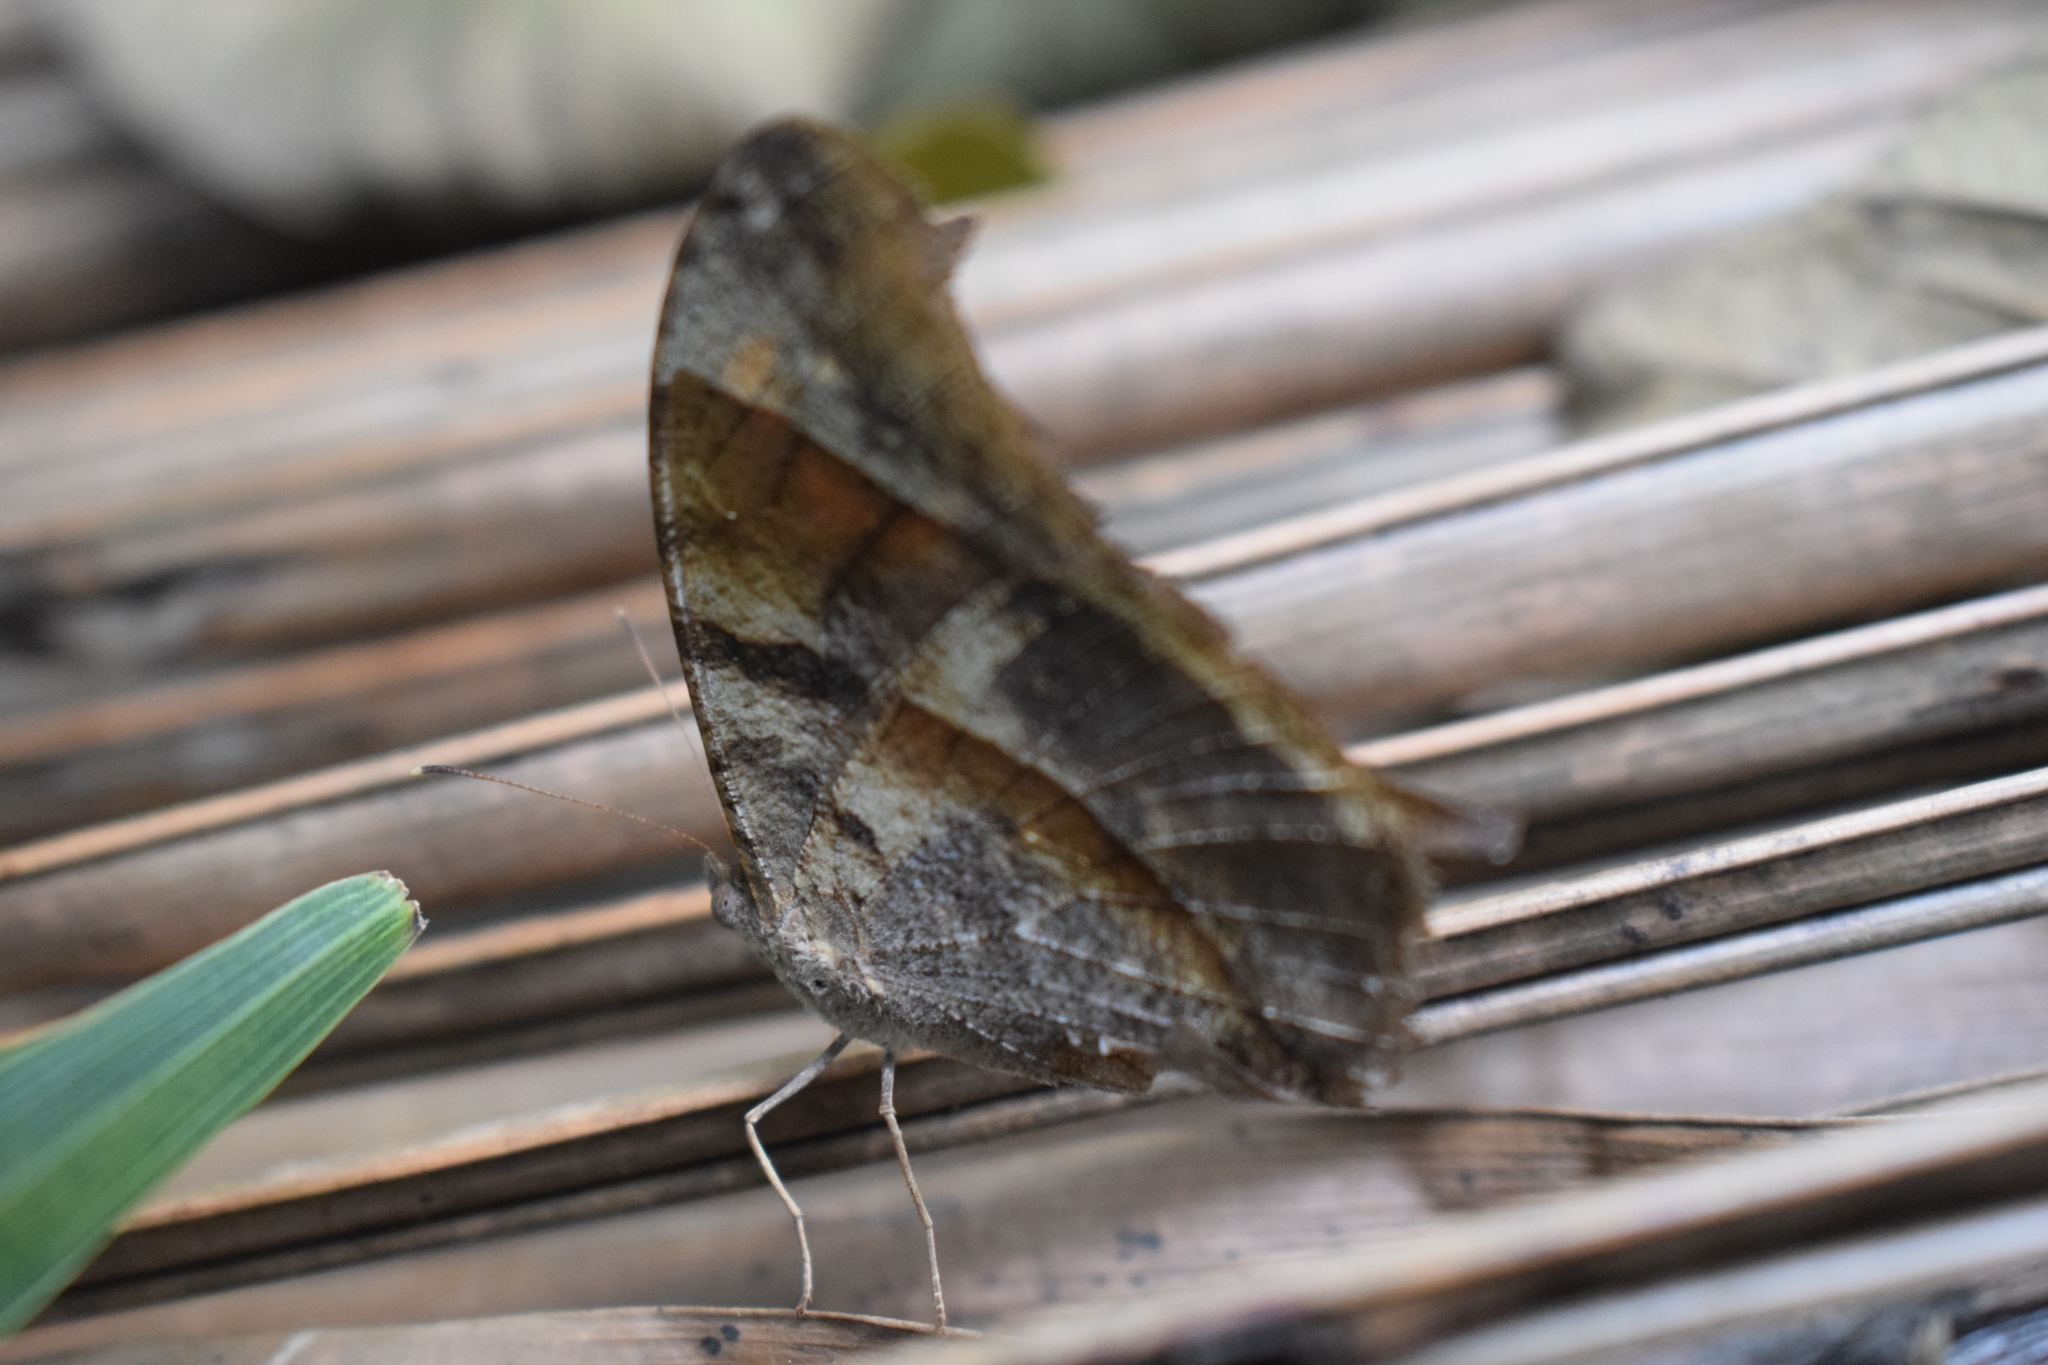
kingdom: Animalia
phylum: Arthropoda
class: Insecta
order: Lepidoptera
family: Nymphalidae
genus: Melanitis
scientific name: Melanitis leda
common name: Twilight brown
